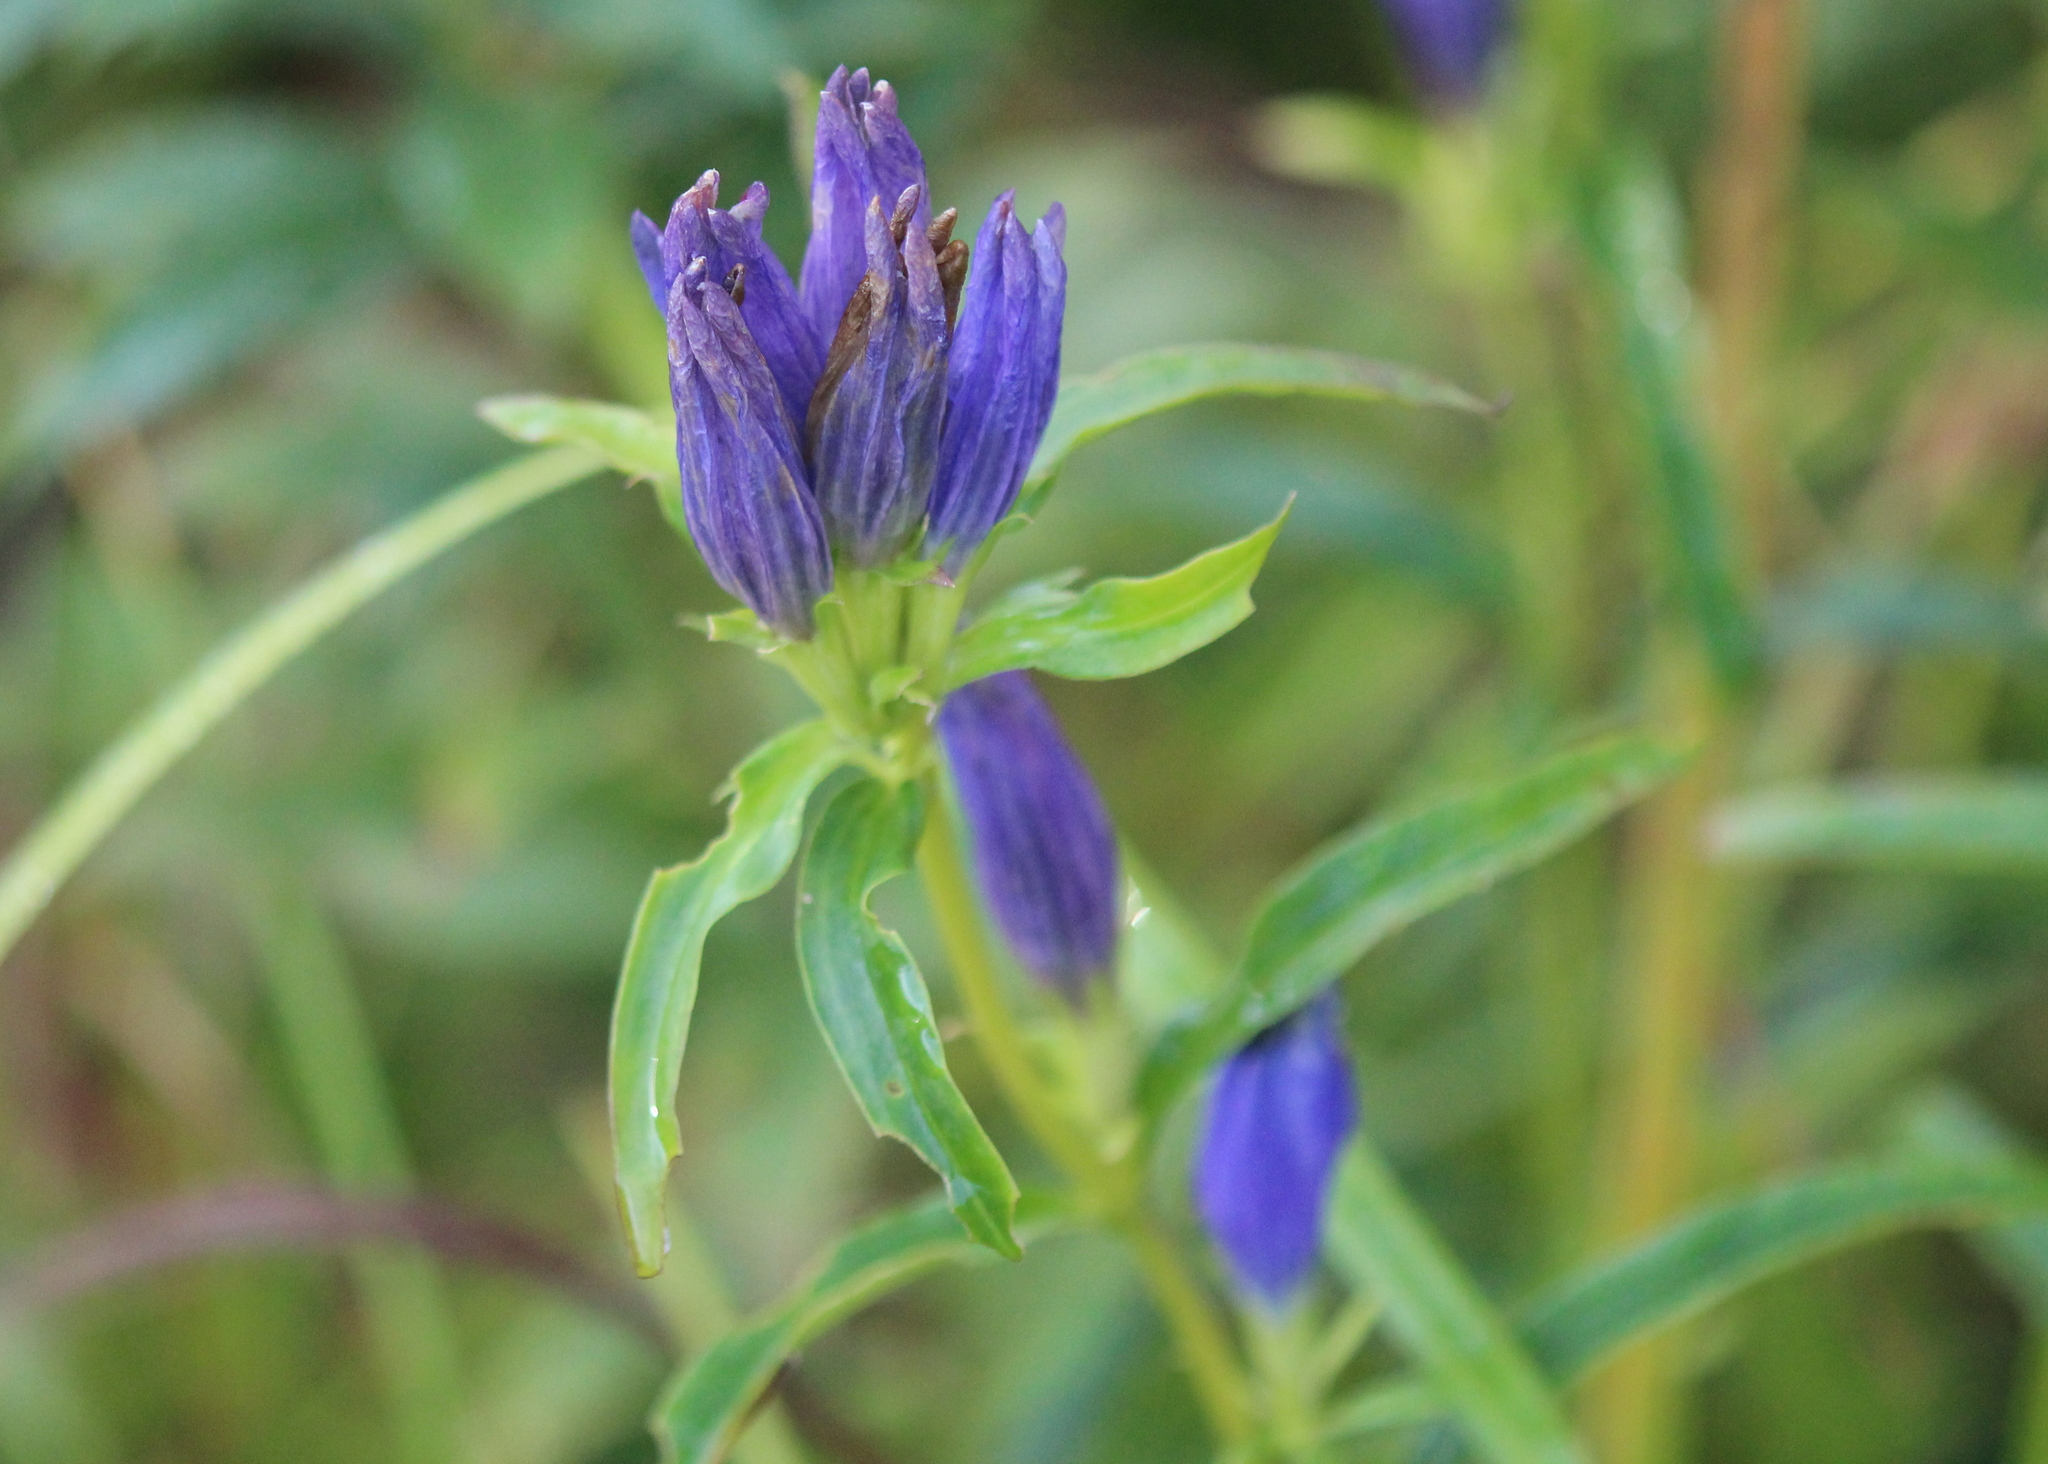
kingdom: Plantae
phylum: Tracheophyta
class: Magnoliopsida
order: Gentianales
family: Gentianaceae
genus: Gentiana
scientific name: Gentiana linearis
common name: Bastard gentian
